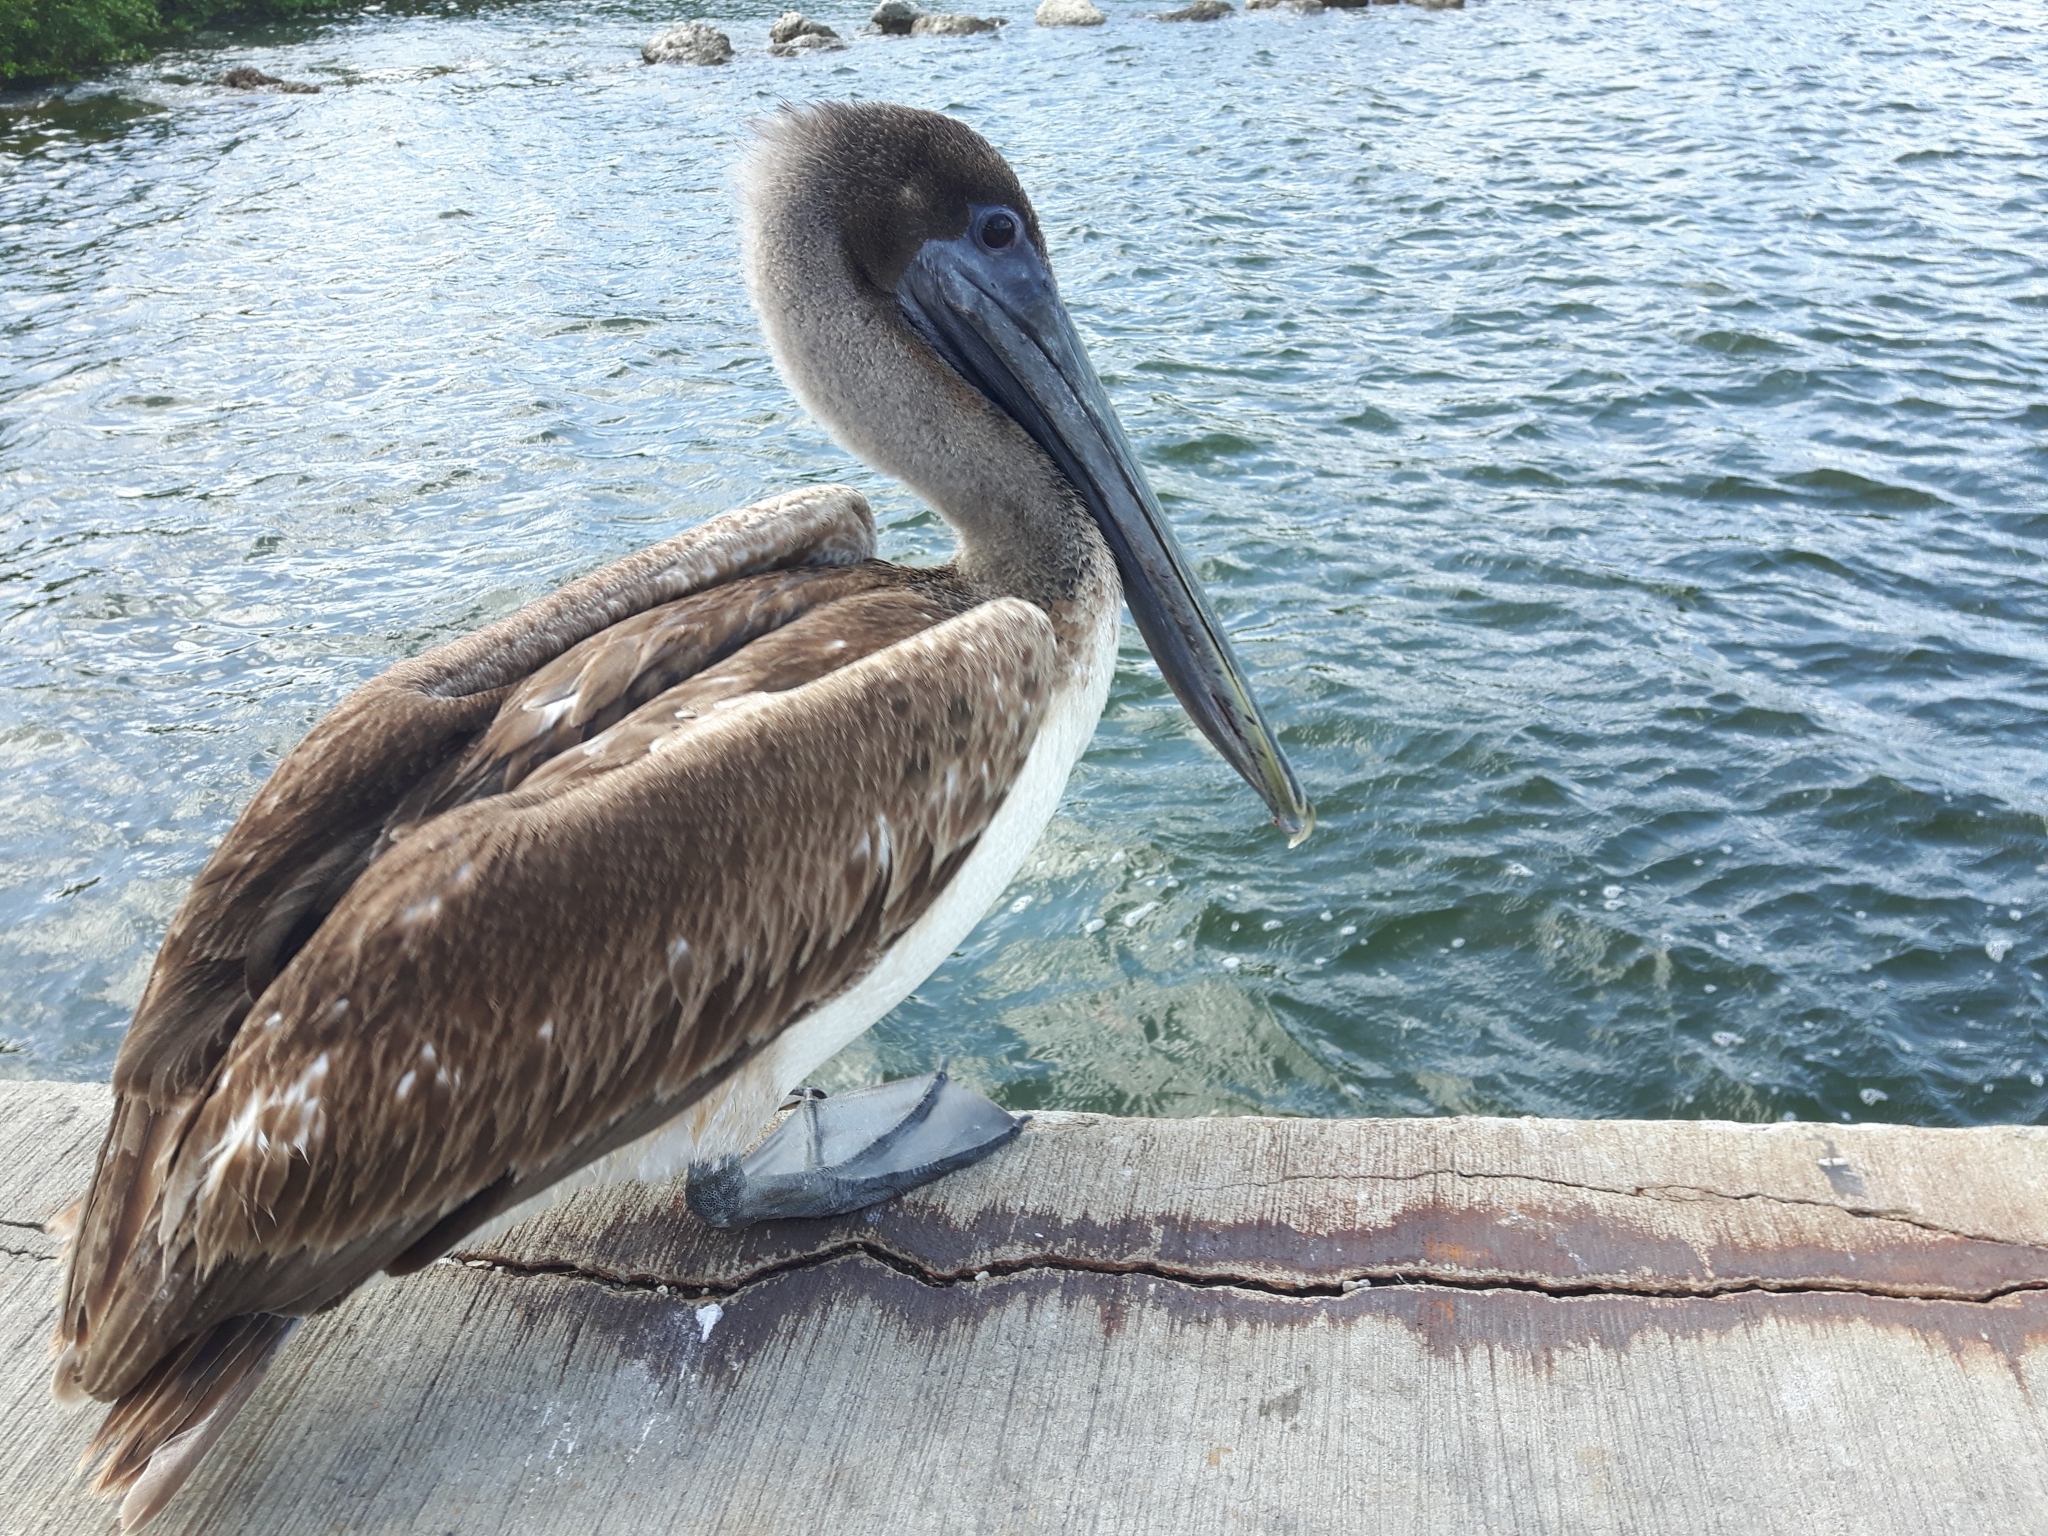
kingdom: Animalia
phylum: Chordata
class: Aves
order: Pelecaniformes
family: Pelecanidae
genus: Pelecanus
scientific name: Pelecanus occidentalis
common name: Brown pelican
